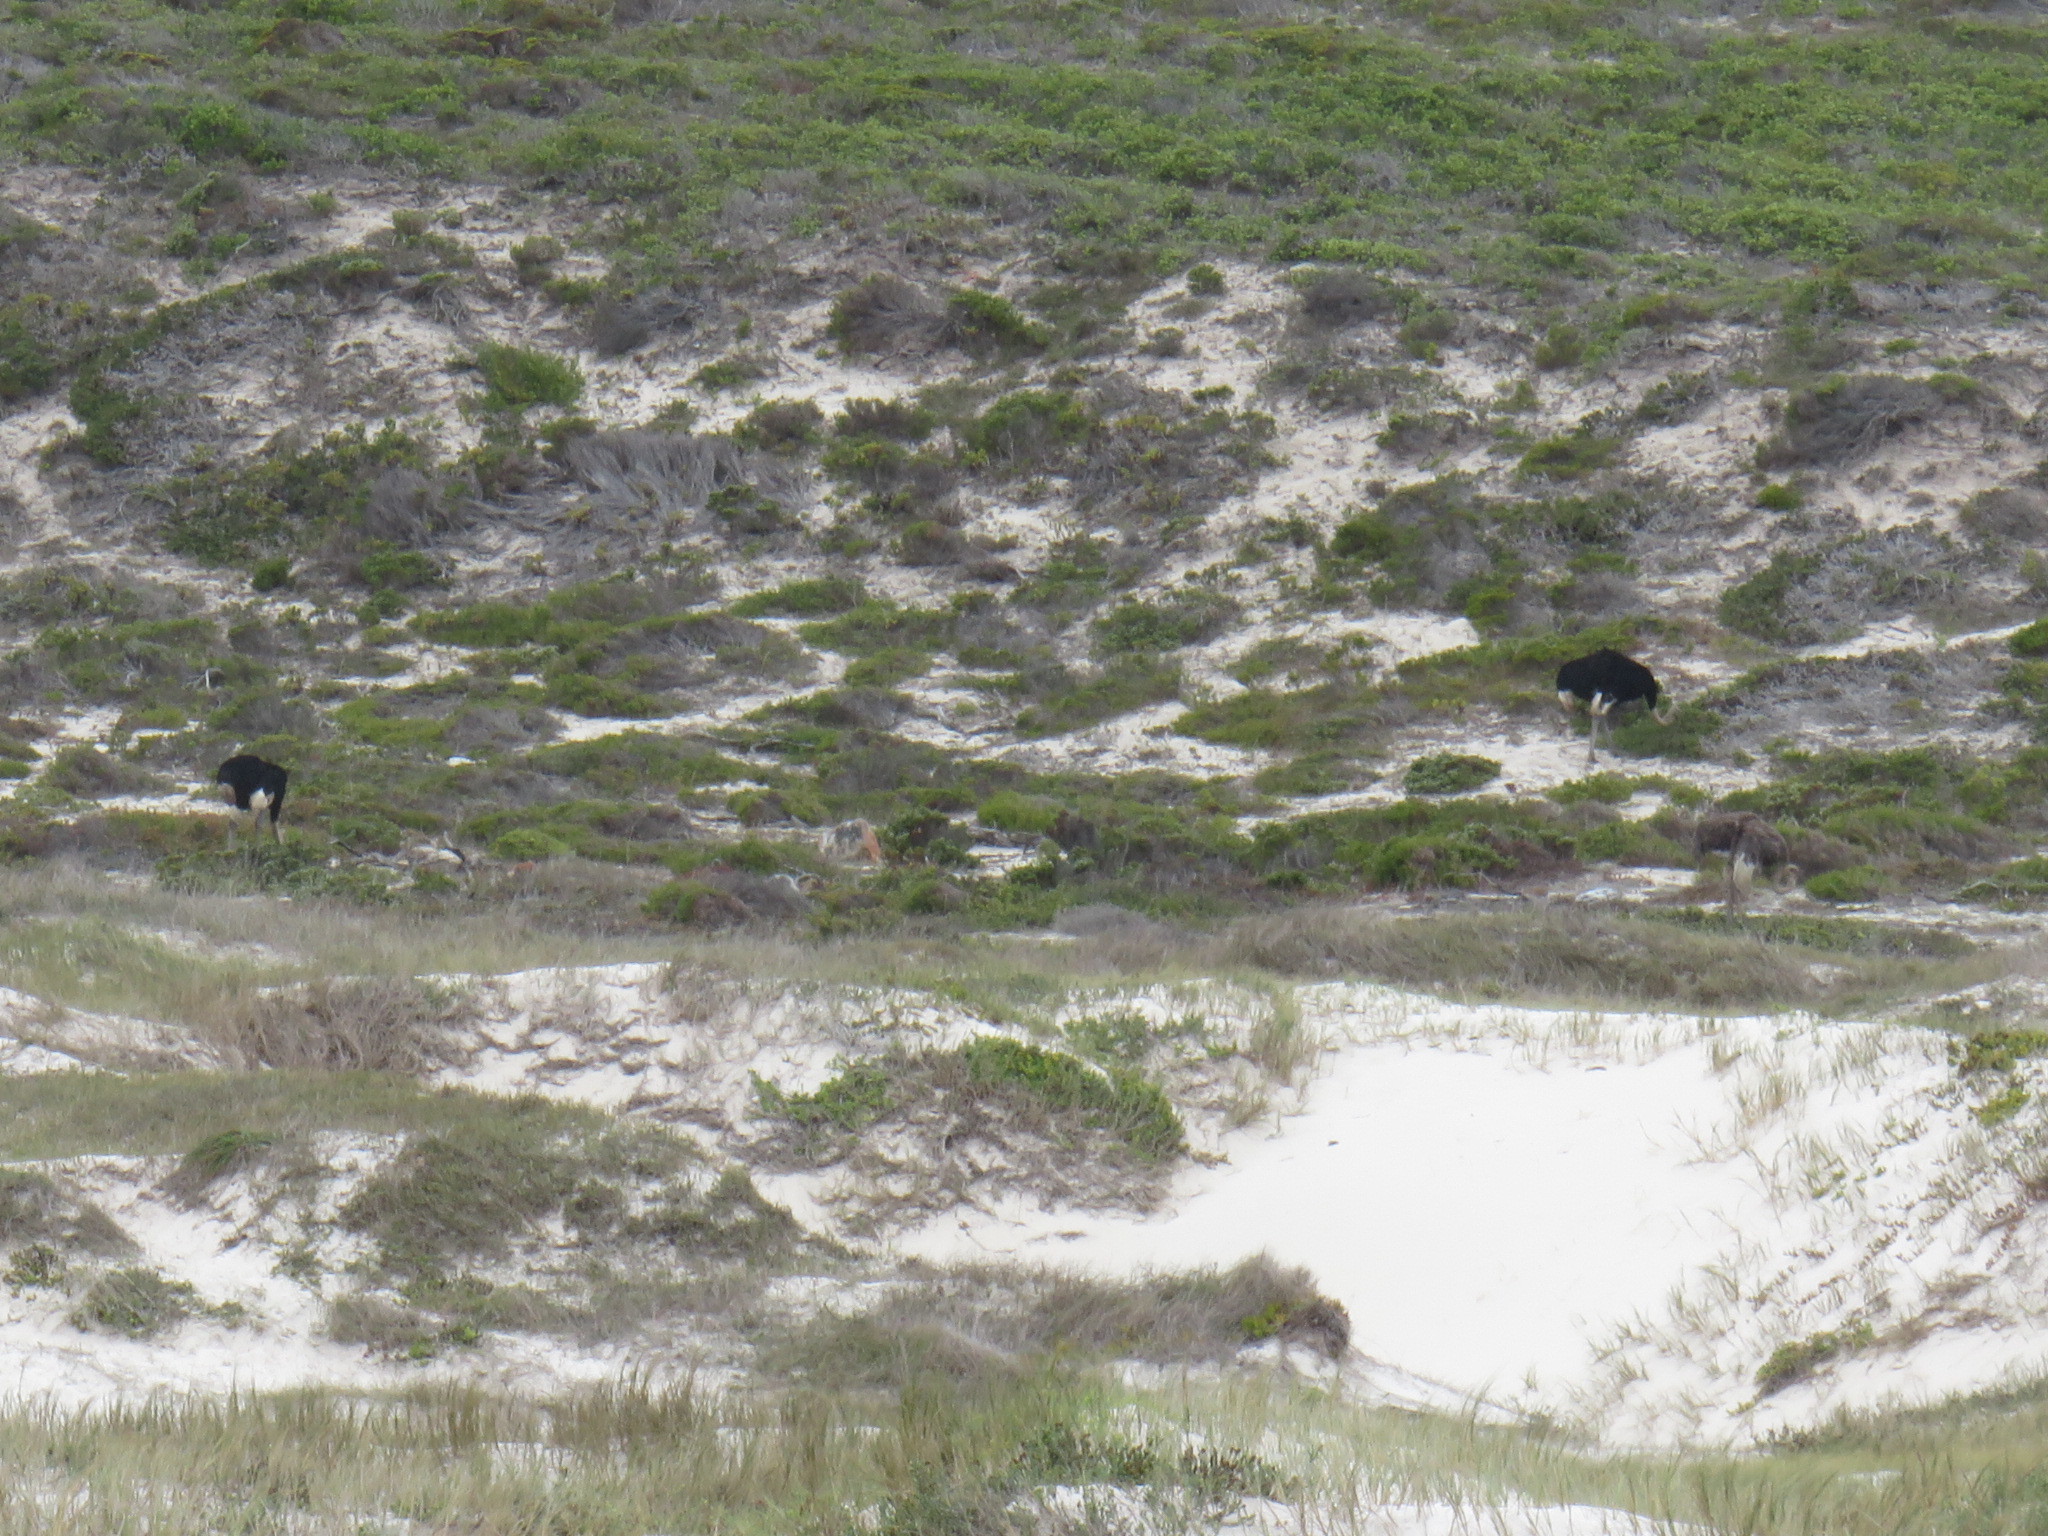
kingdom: Animalia
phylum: Chordata
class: Aves
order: Struthioniformes
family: Struthionidae
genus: Struthio
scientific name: Struthio camelus
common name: Common ostrich
